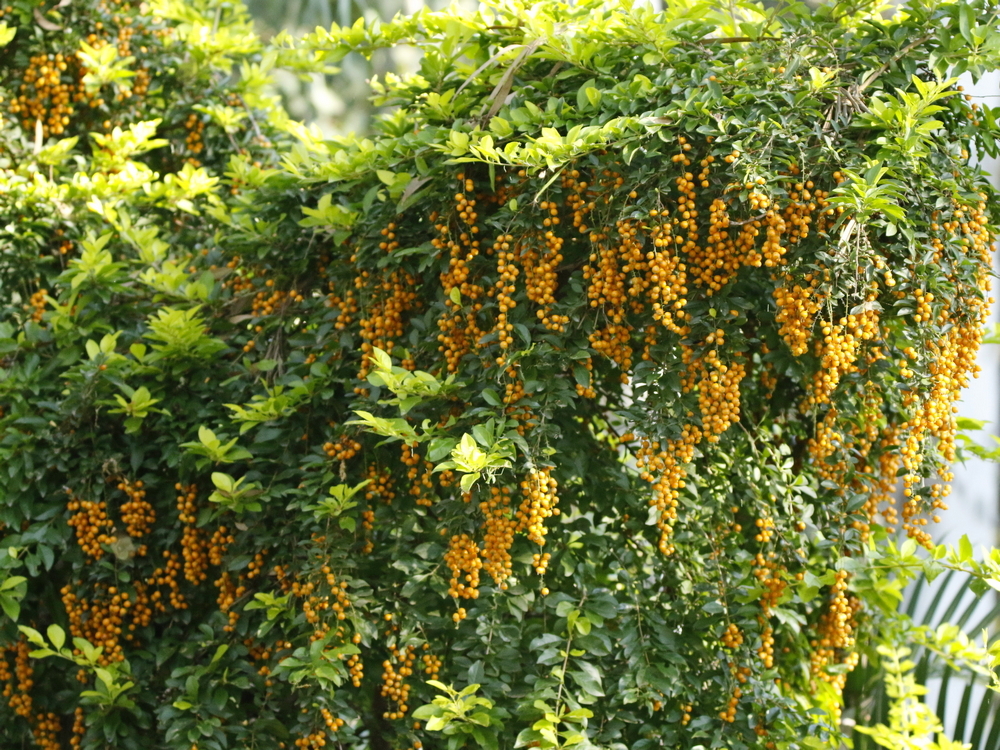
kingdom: Plantae
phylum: Tracheophyta
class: Magnoliopsida
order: Lamiales
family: Verbenaceae
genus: Duranta
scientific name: Duranta erecta
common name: Golden dewdrops
